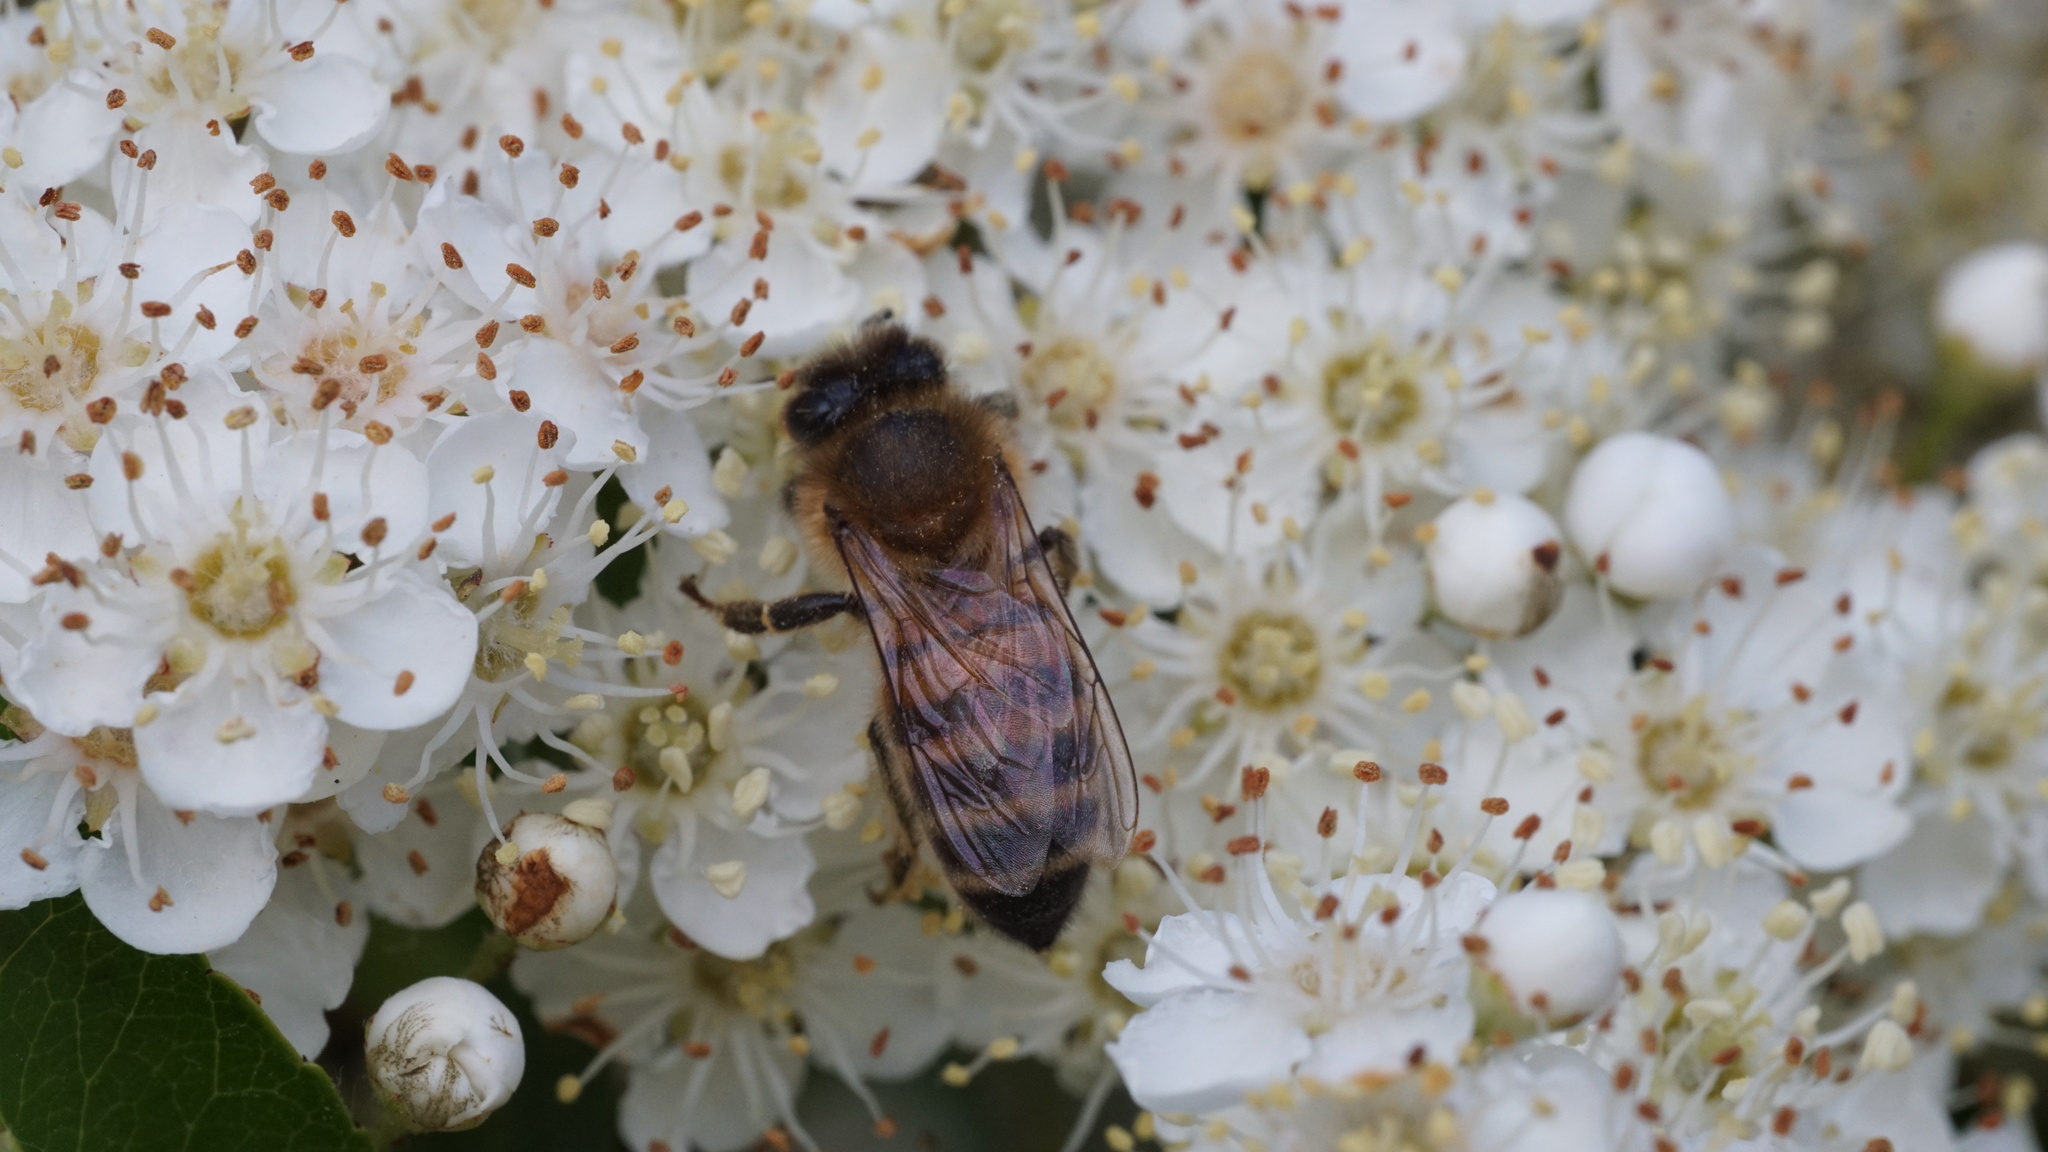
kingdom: Animalia
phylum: Arthropoda
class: Insecta
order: Hymenoptera
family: Apidae
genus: Apis
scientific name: Apis mellifera
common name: Honey bee
